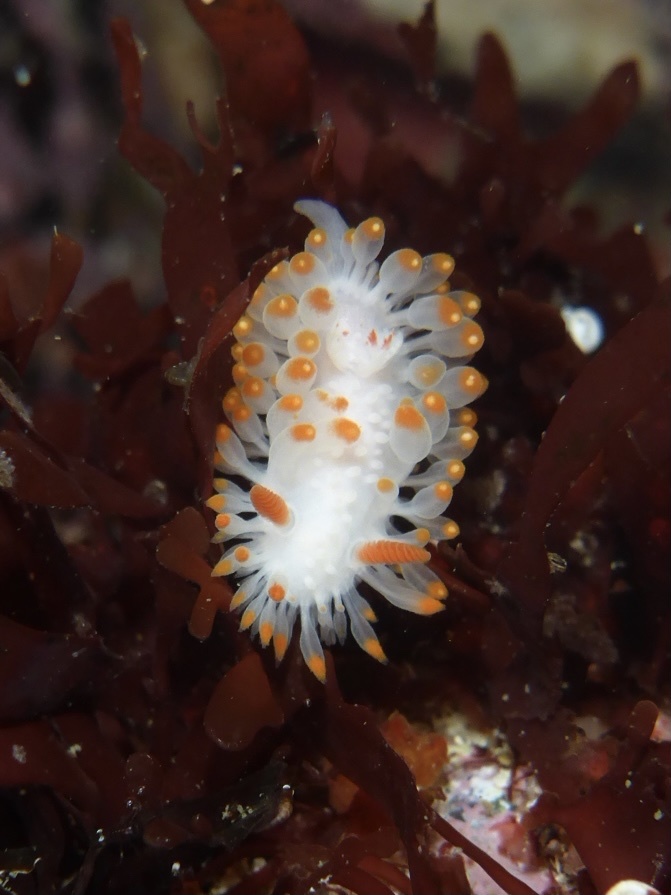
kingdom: Animalia
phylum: Mollusca
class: Gastropoda
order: Nudibranchia
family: Polyceridae
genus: Limacia
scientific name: Limacia cockerelli
